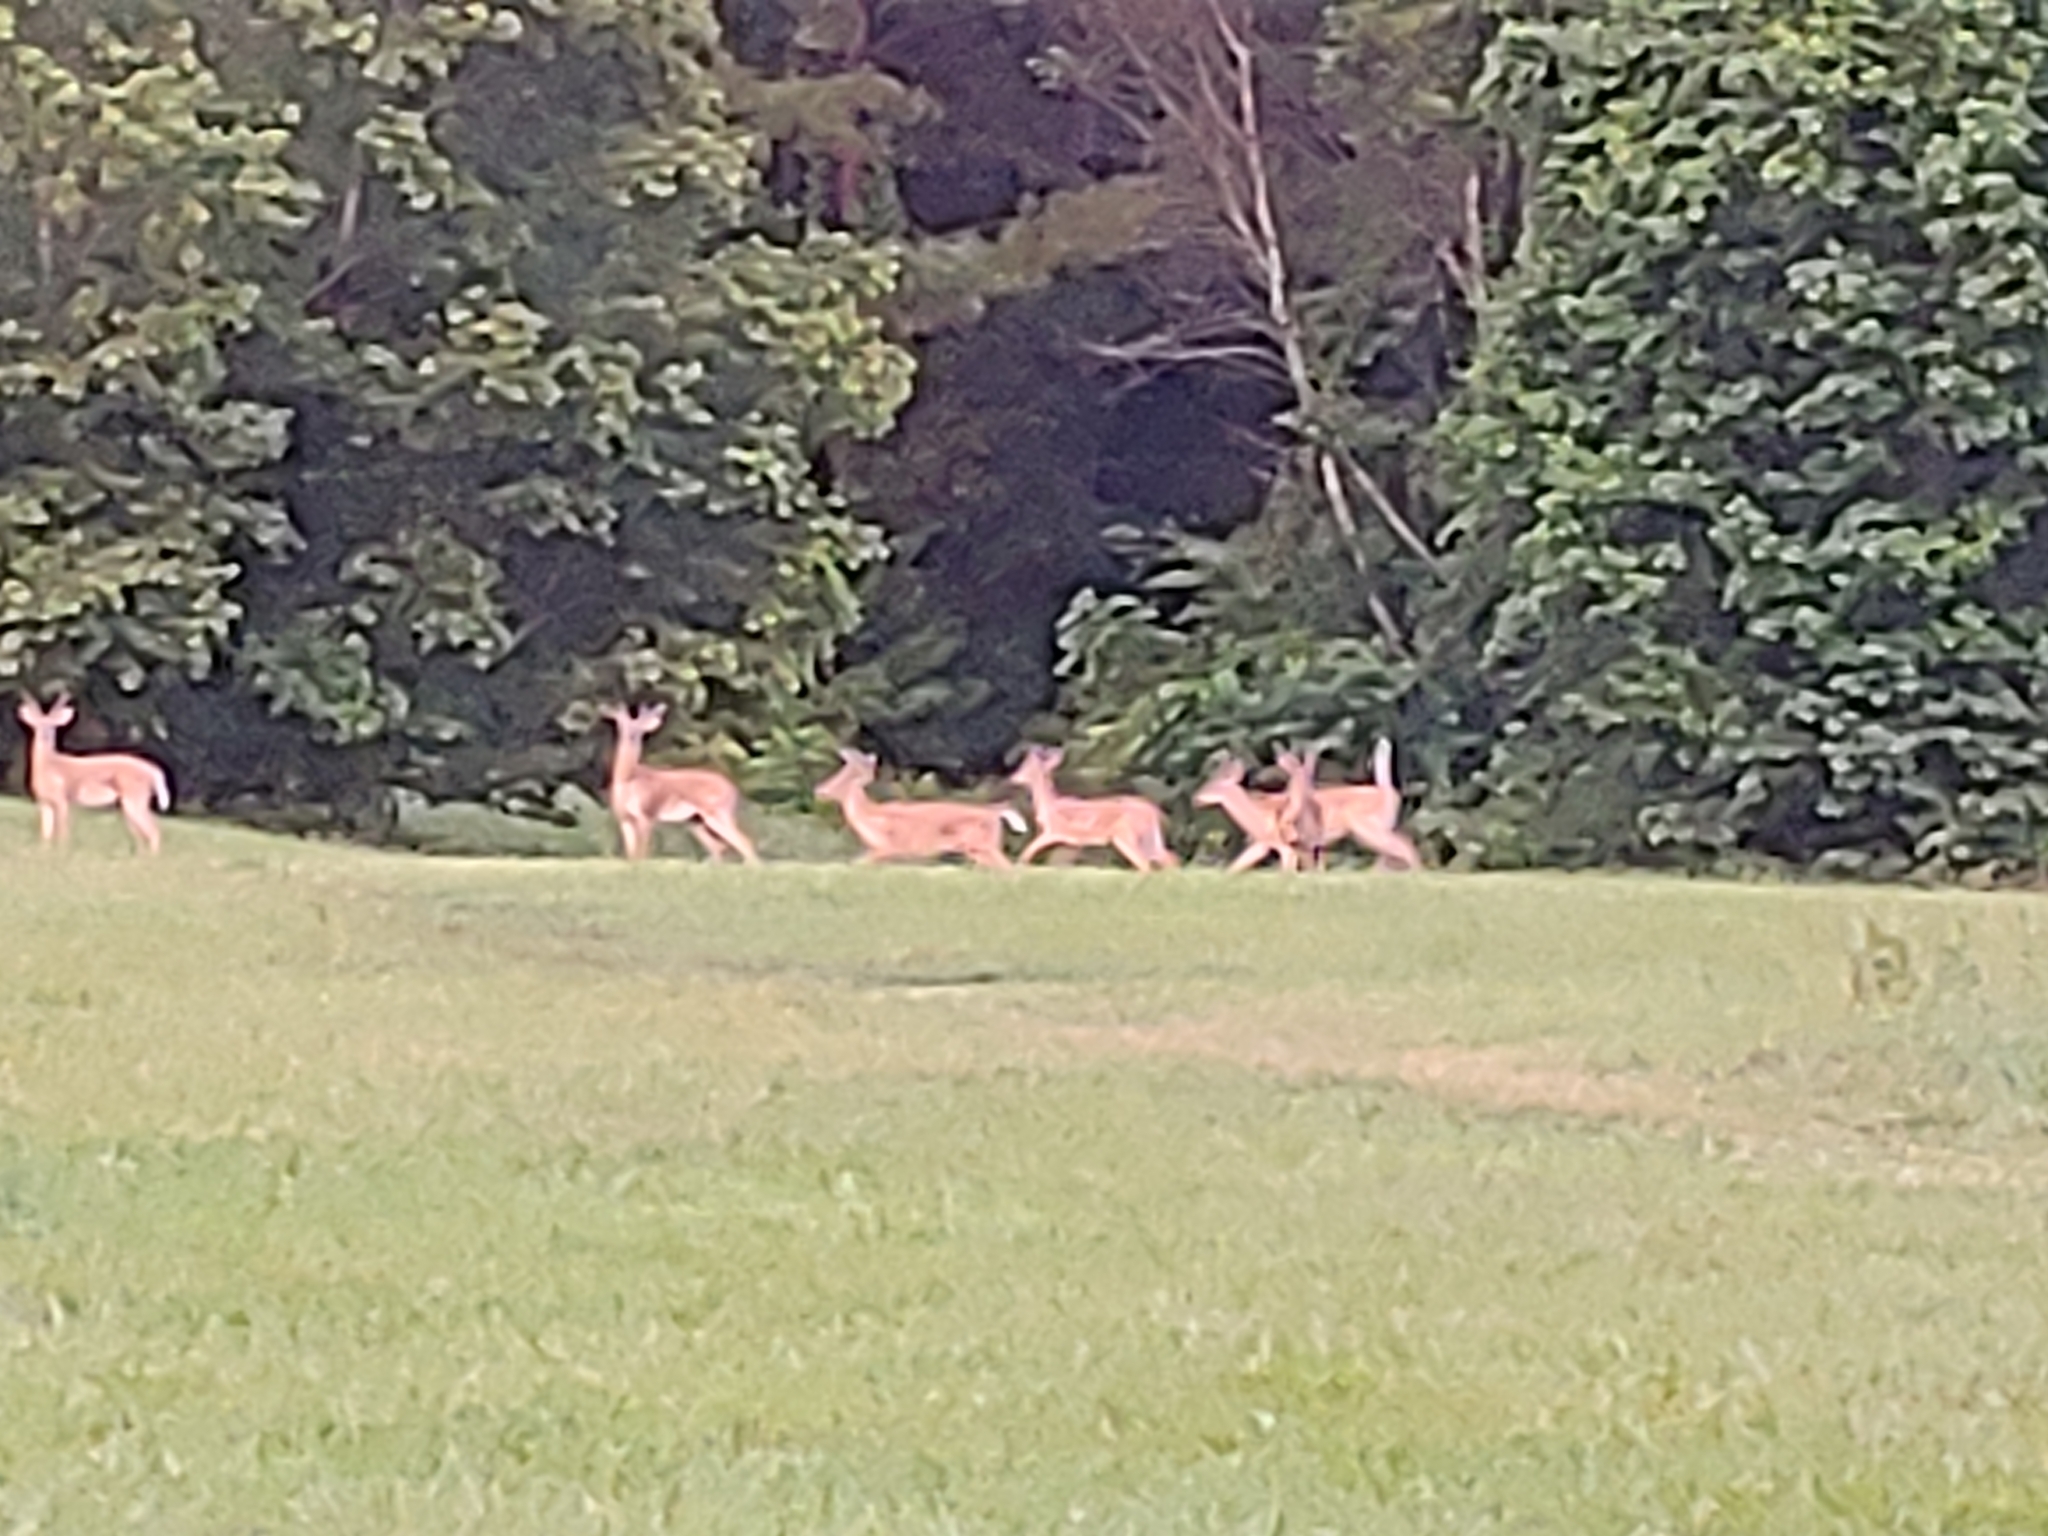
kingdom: Animalia
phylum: Chordata
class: Mammalia
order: Artiodactyla
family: Cervidae
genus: Odocoileus
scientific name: Odocoileus virginianus
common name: White-tailed deer
